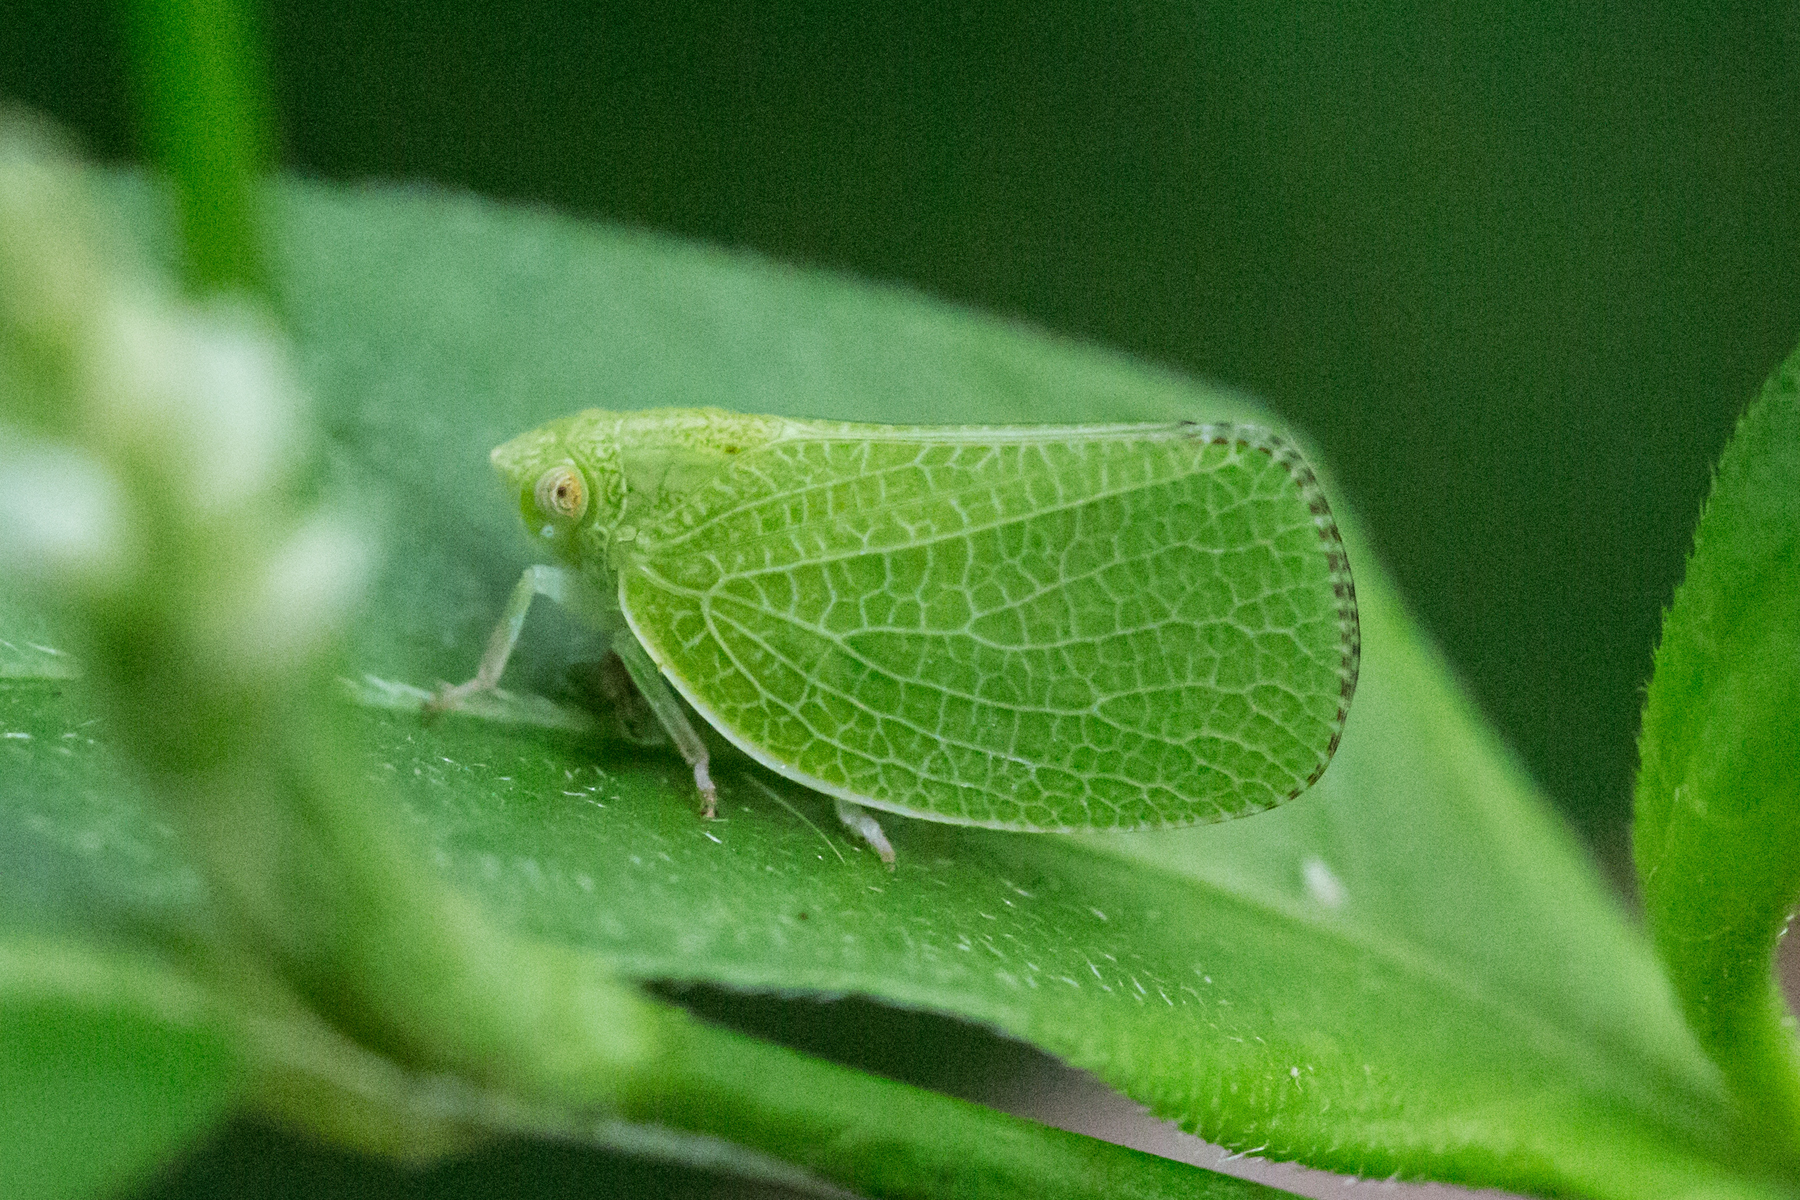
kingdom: Animalia
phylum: Arthropoda
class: Insecta
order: Hemiptera
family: Acanaloniidae
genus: Acanalonia
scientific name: Acanalonia conica
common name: Green cone-headed planthopper
